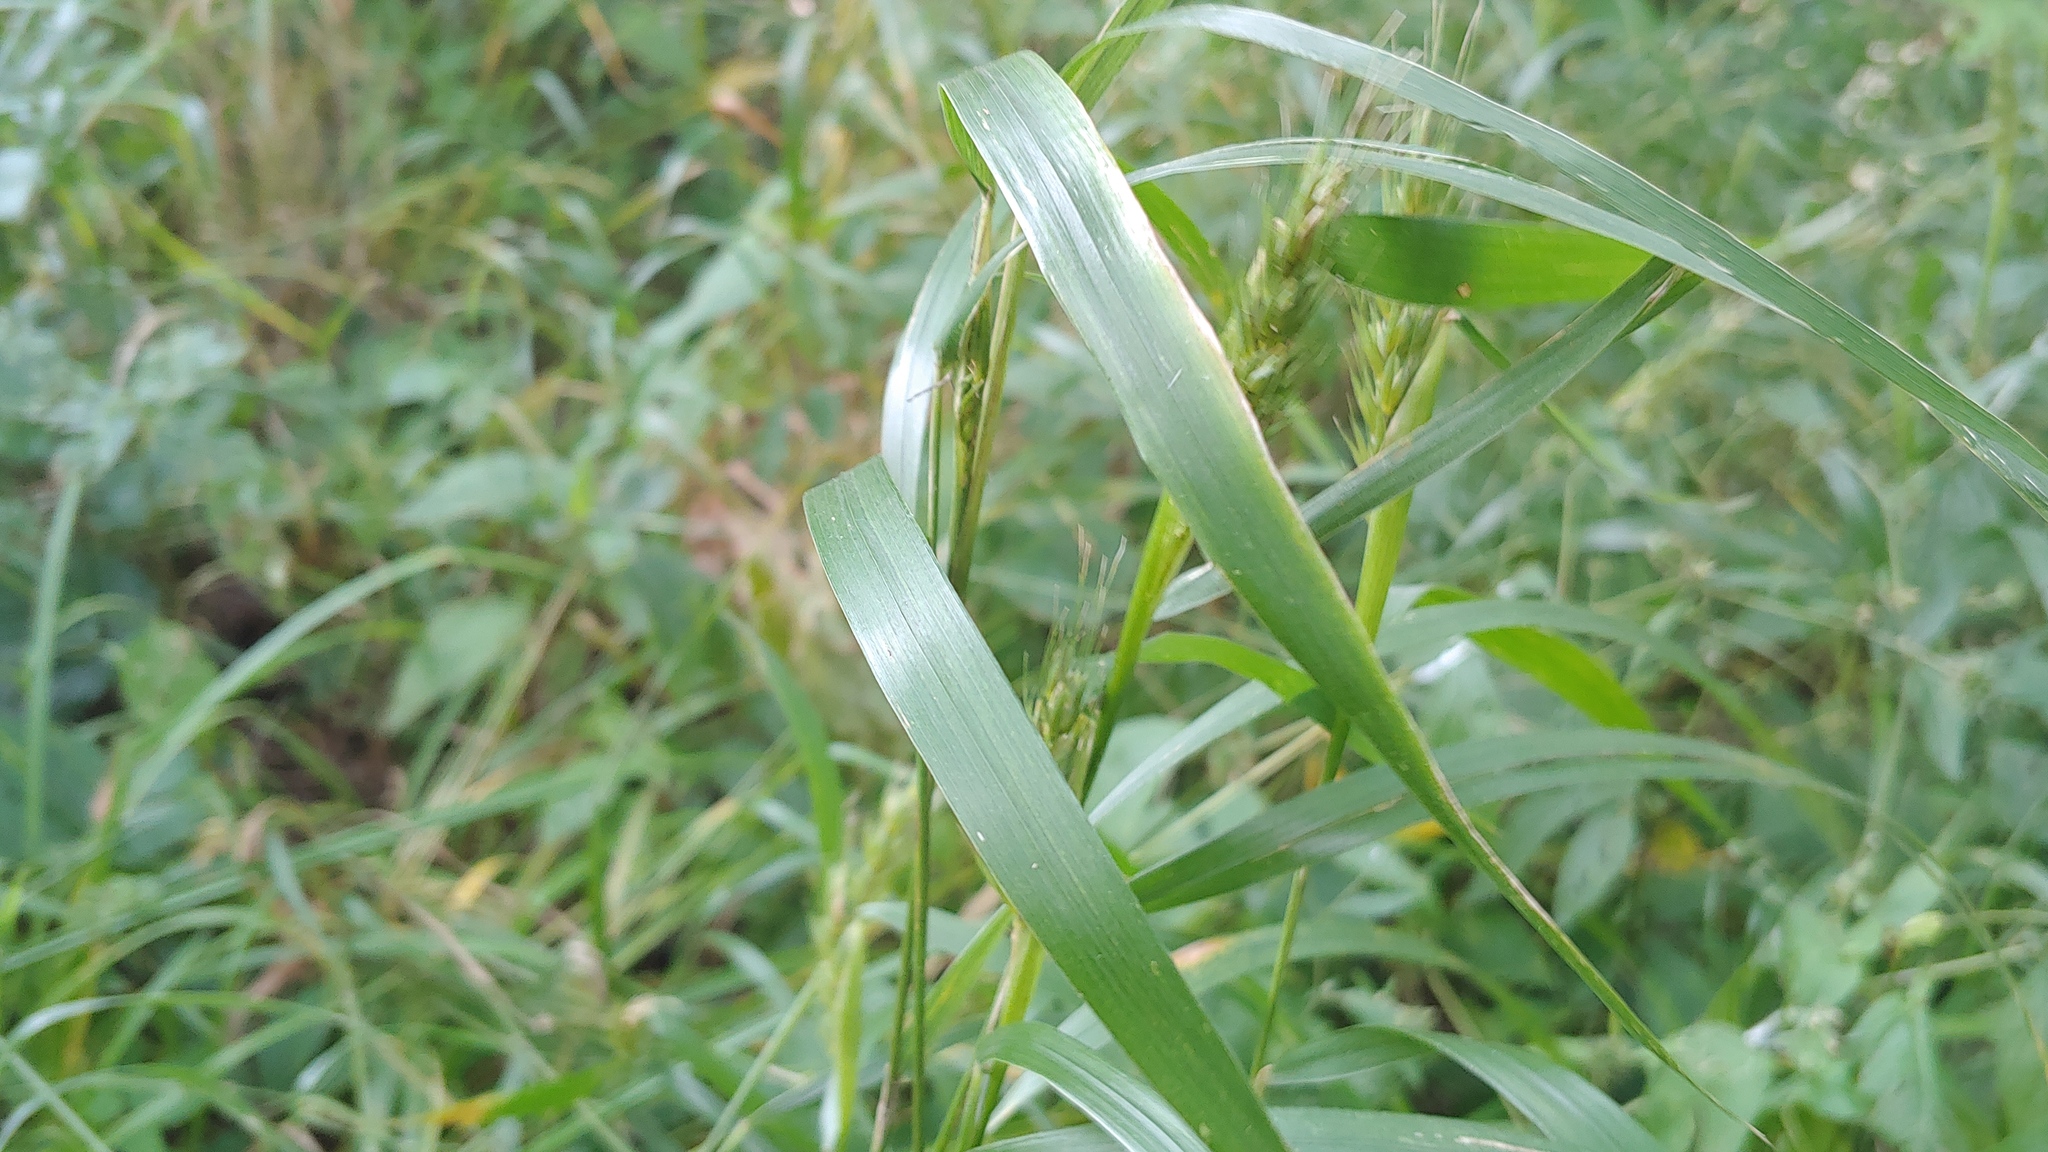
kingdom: Plantae
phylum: Tracheophyta
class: Liliopsida
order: Poales
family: Poaceae
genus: Elymus
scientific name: Elymus virginicus
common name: Common eastern wildrye
